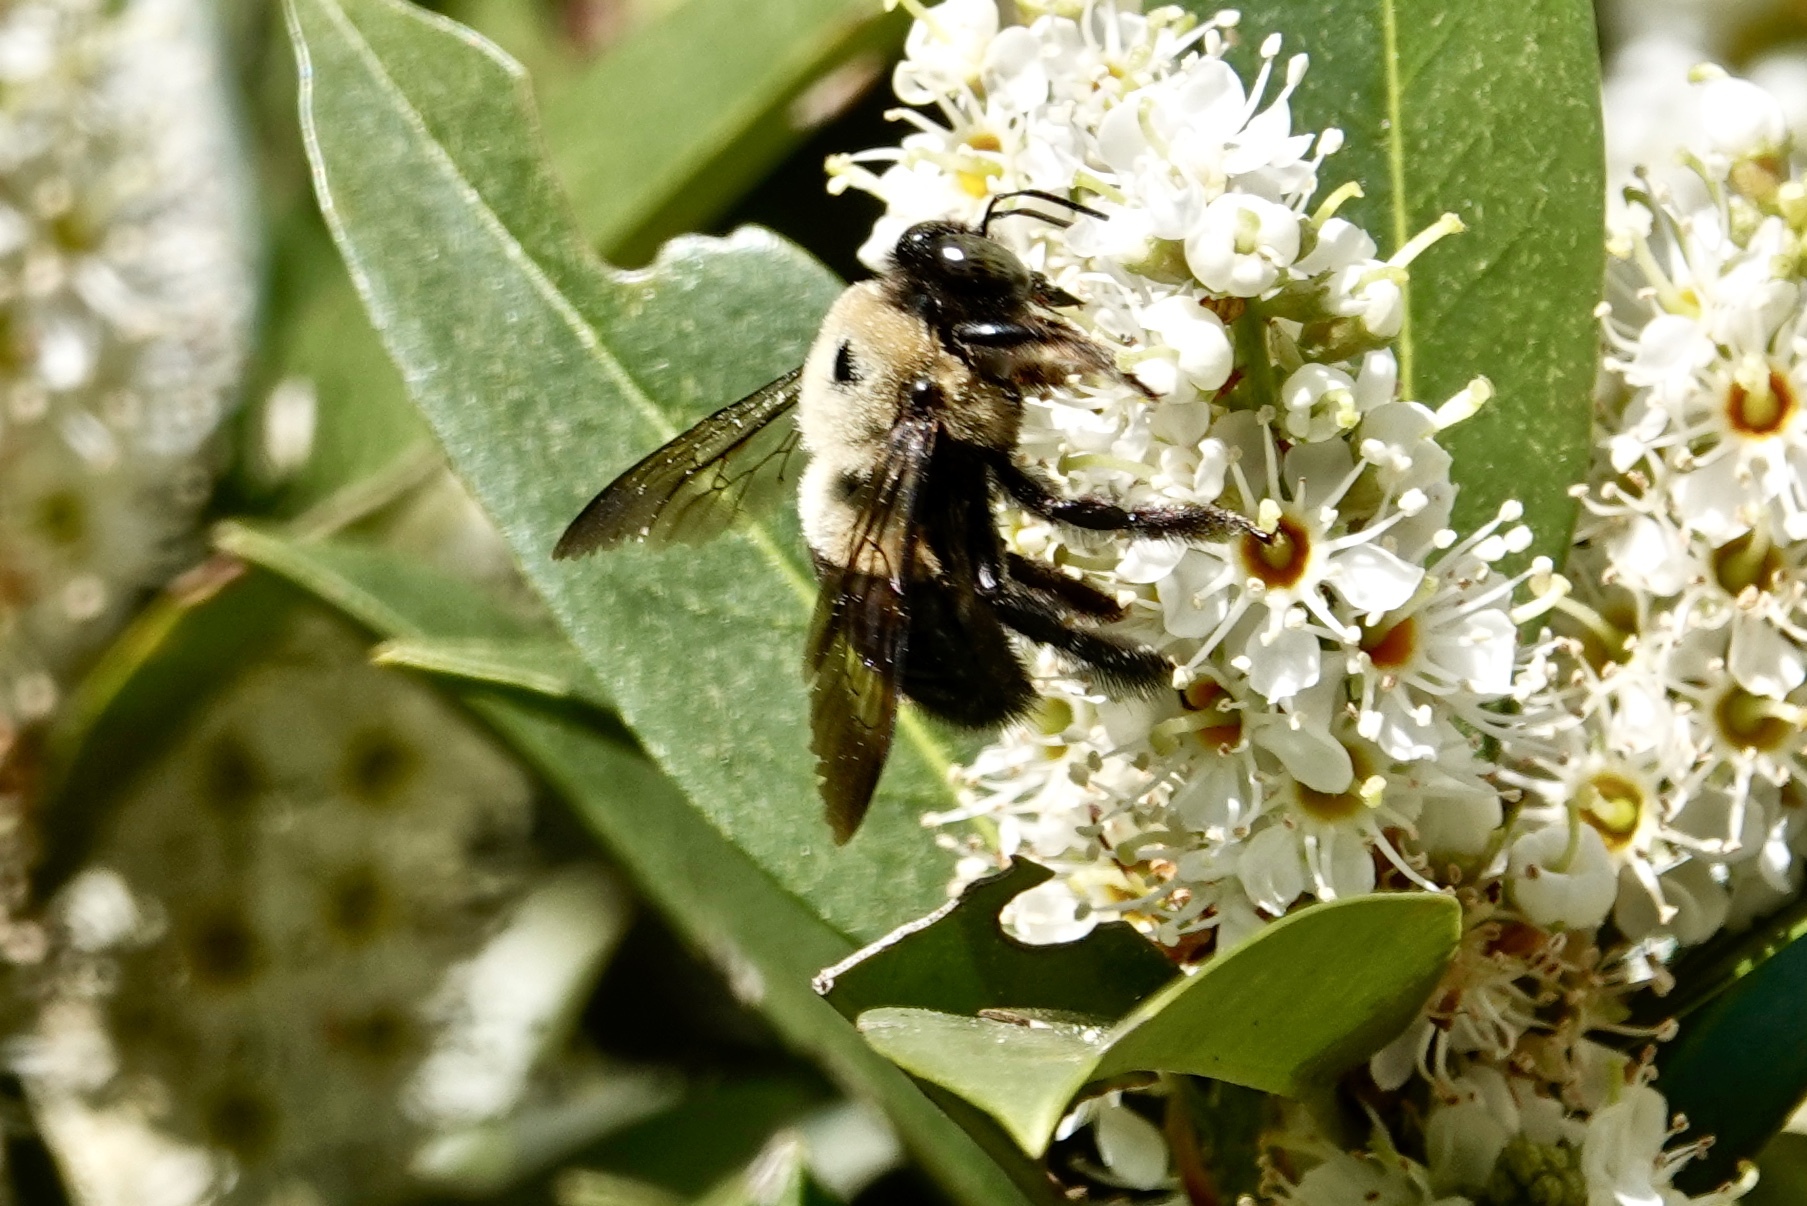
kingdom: Animalia
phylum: Arthropoda
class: Insecta
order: Hymenoptera
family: Apidae
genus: Xylocopa
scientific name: Xylocopa virginica
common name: Carpenter bee
